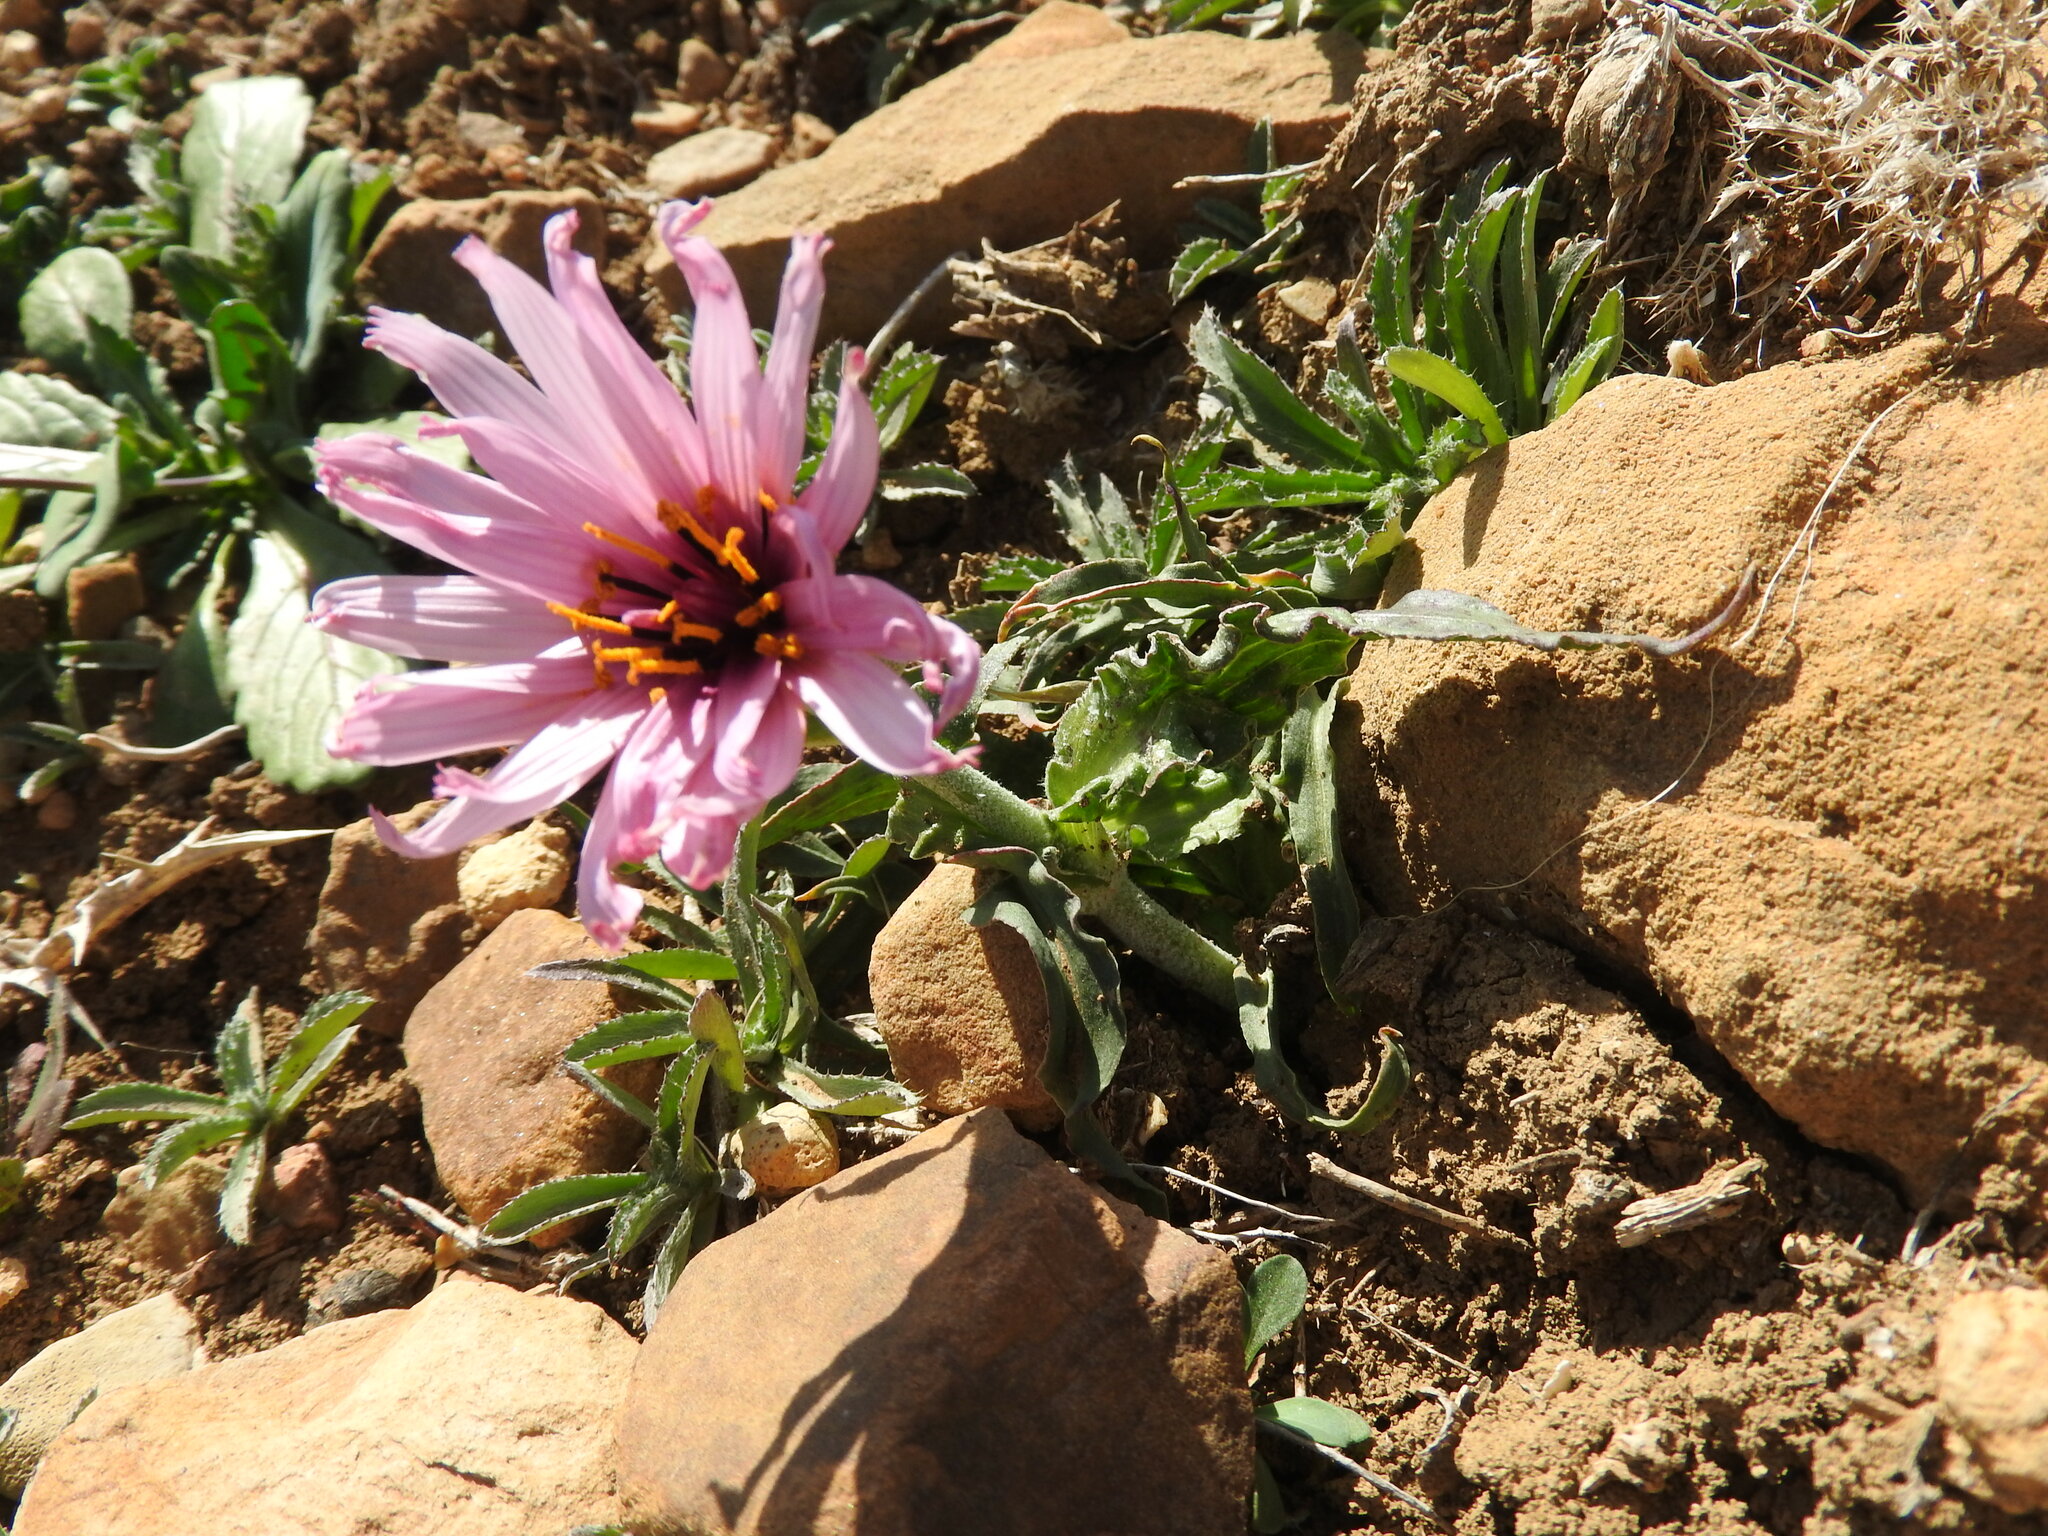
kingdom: Plantae
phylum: Tracheophyta
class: Magnoliopsida
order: Asterales
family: Asteraceae
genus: Pseudopodospermum
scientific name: Pseudopodospermum undulatum
